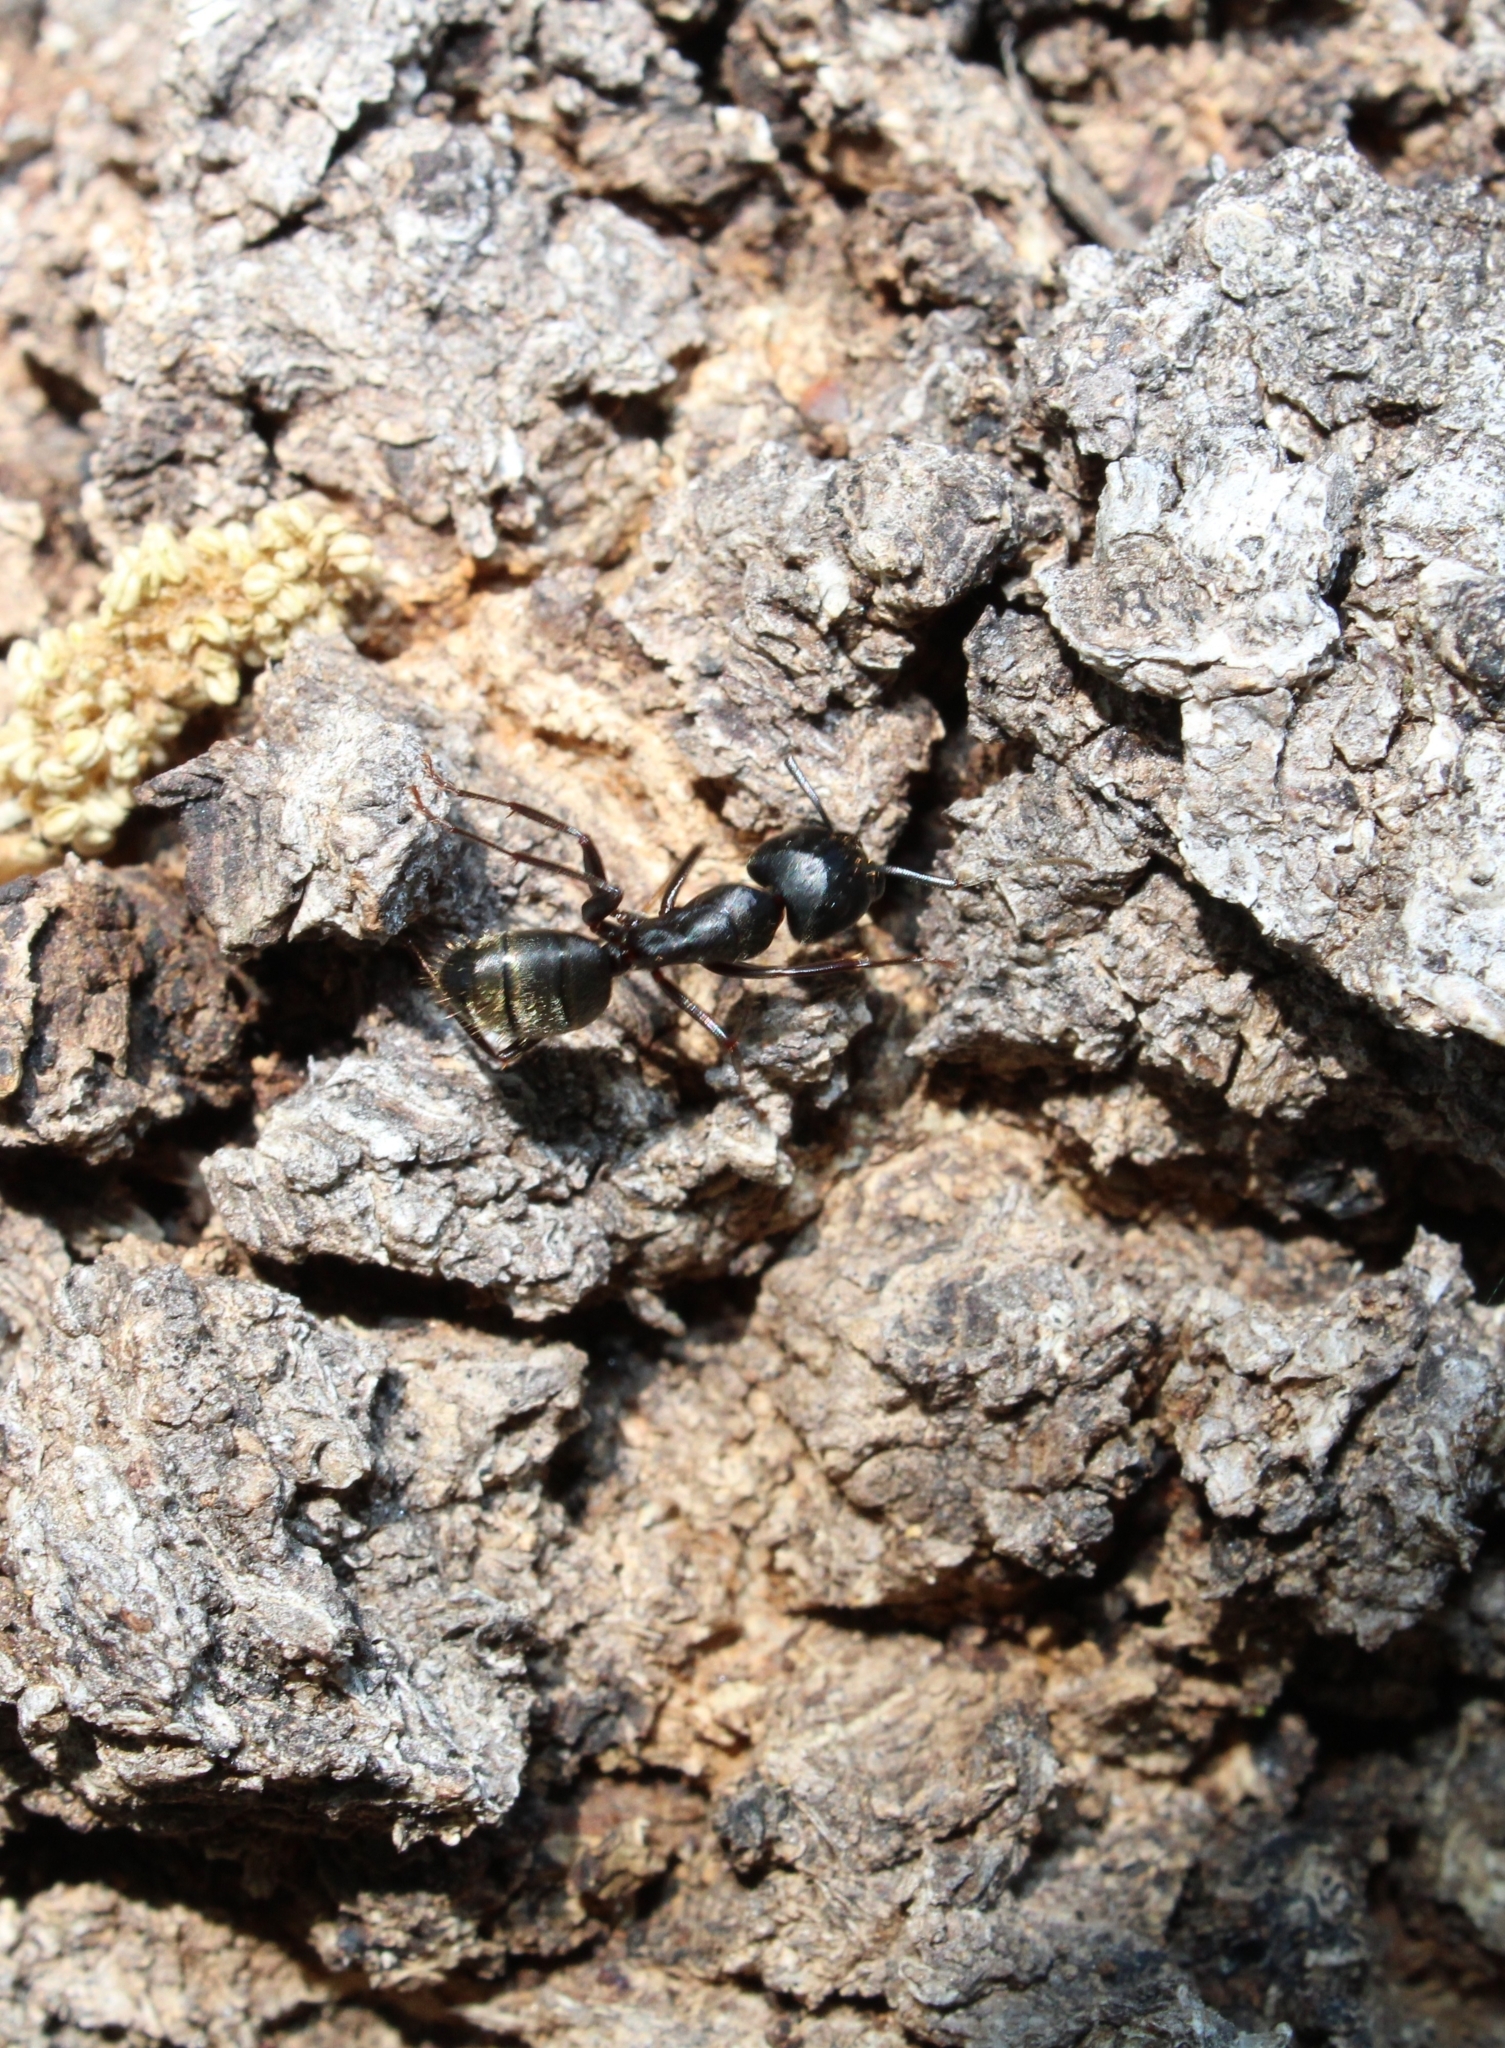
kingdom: Animalia
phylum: Arthropoda
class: Insecta
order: Hymenoptera
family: Formicidae
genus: Camponotus
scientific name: Camponotus pennsylvanicus
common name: Black carpenter ant
